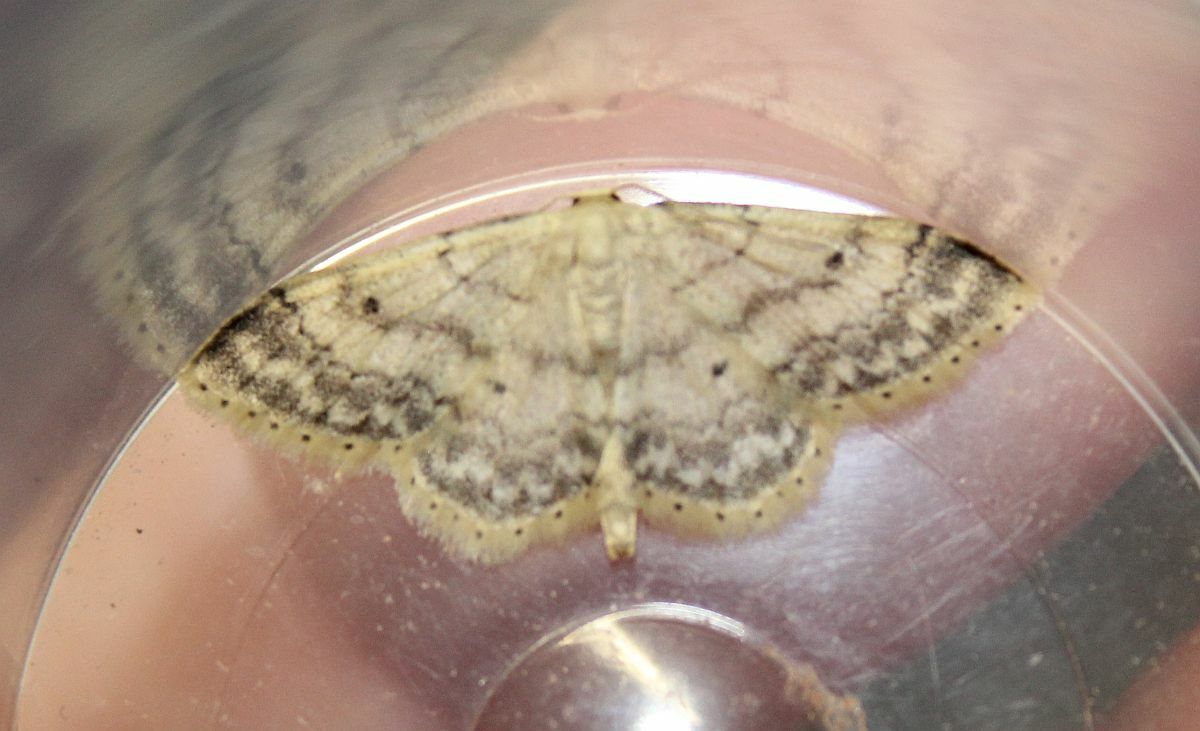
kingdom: Animalia
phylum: Arthropoda
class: Insecta
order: Lepidoptera
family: Geometridae
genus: Idaea
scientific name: Idaea biselata
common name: Small fan-footed wave
